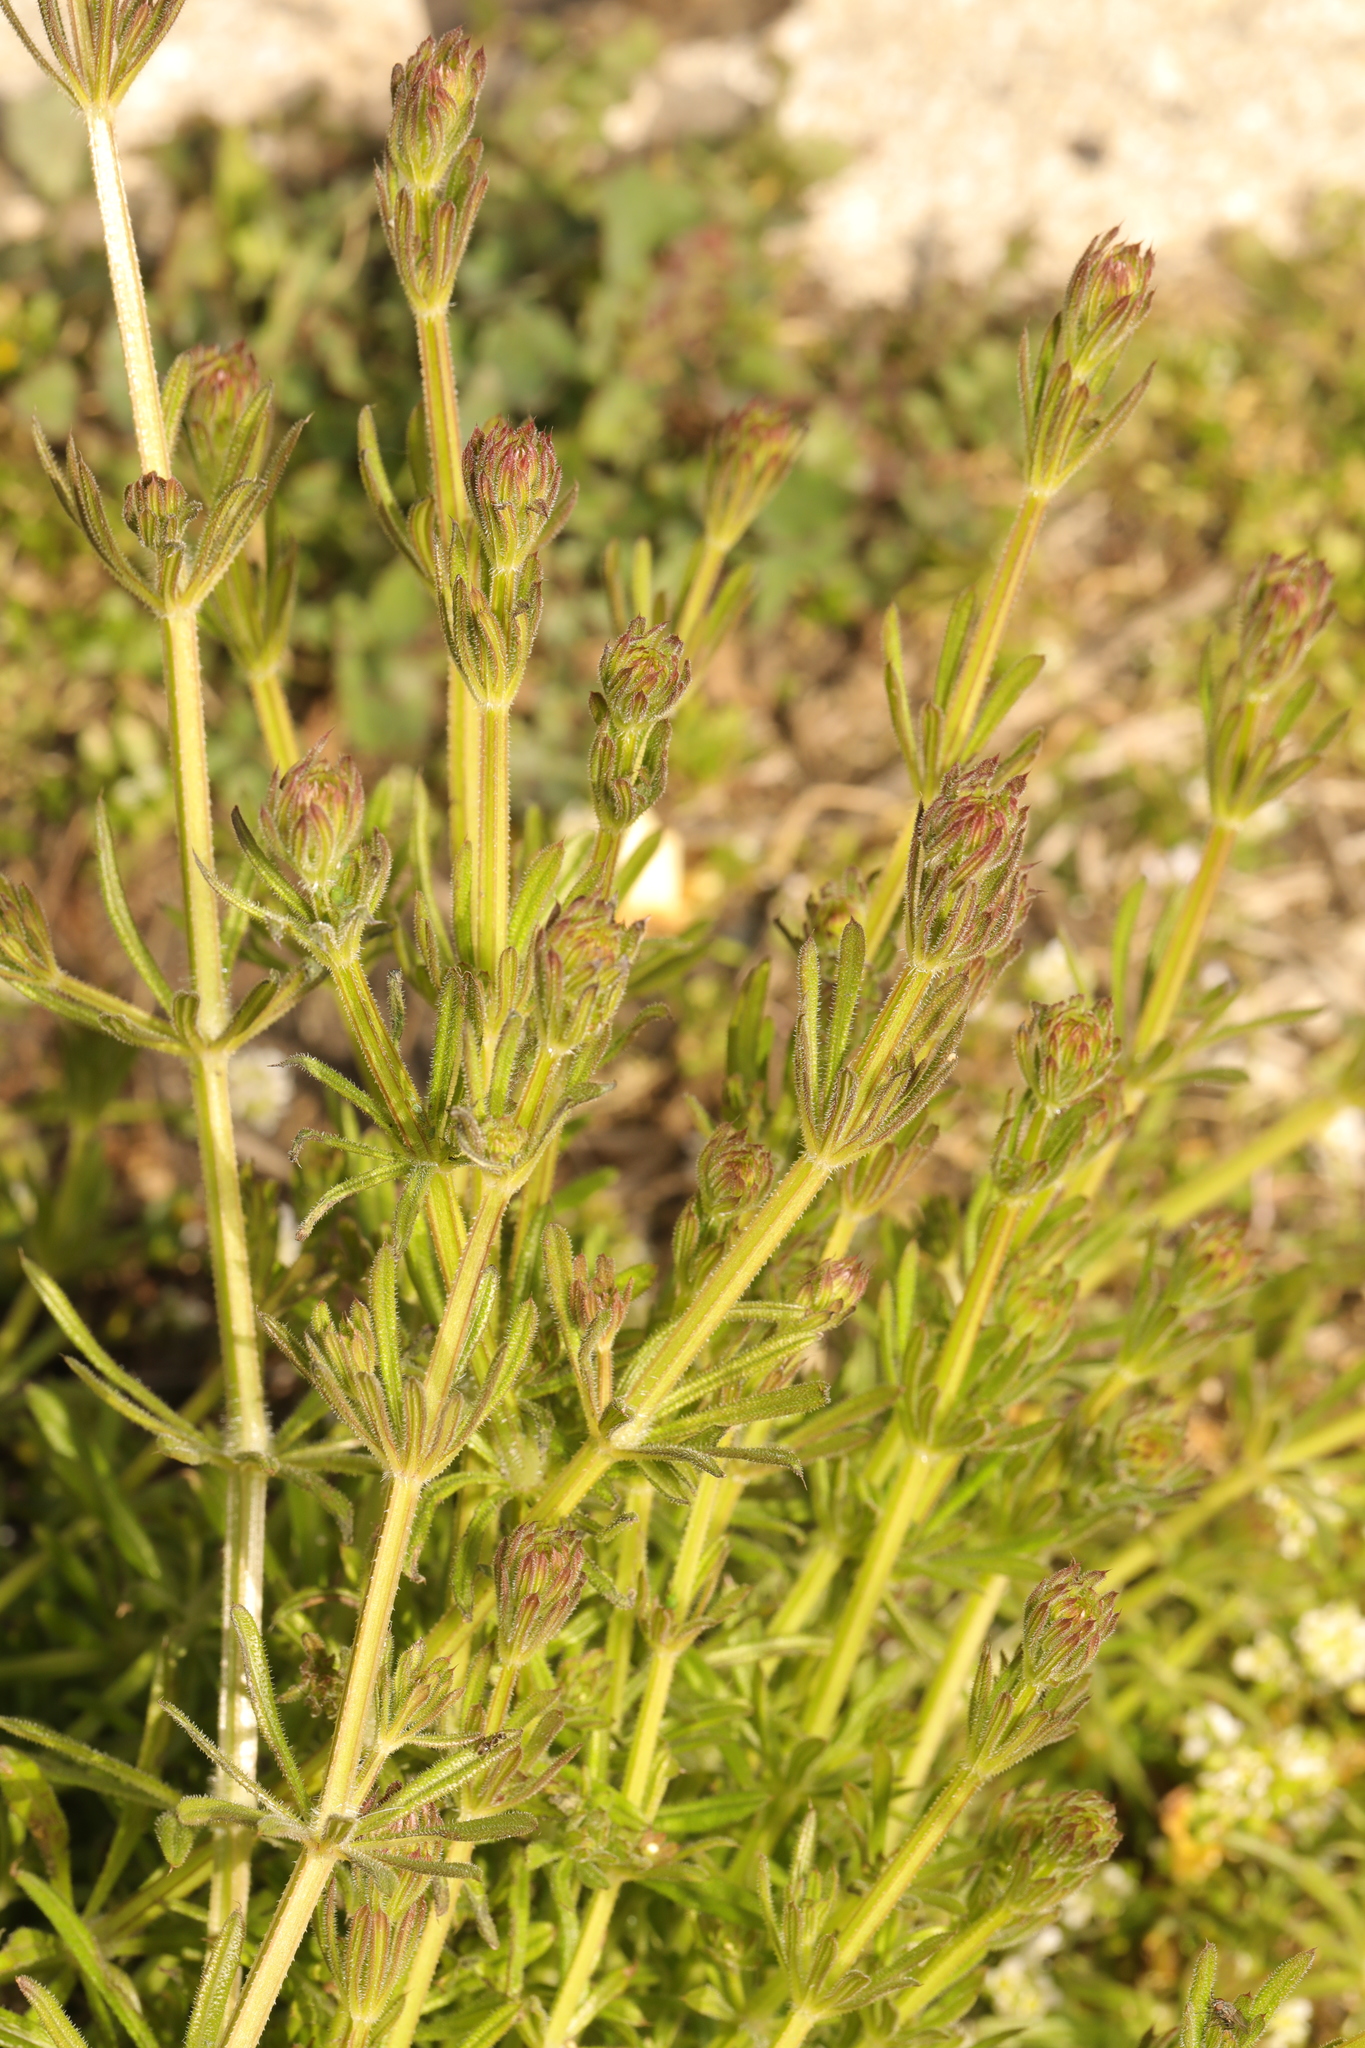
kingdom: Plantae
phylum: Tracheophyta
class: Magnoliopsida
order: Gentianales
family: Rubiaceae
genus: Galium
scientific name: Galium aparine
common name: Cleavers
